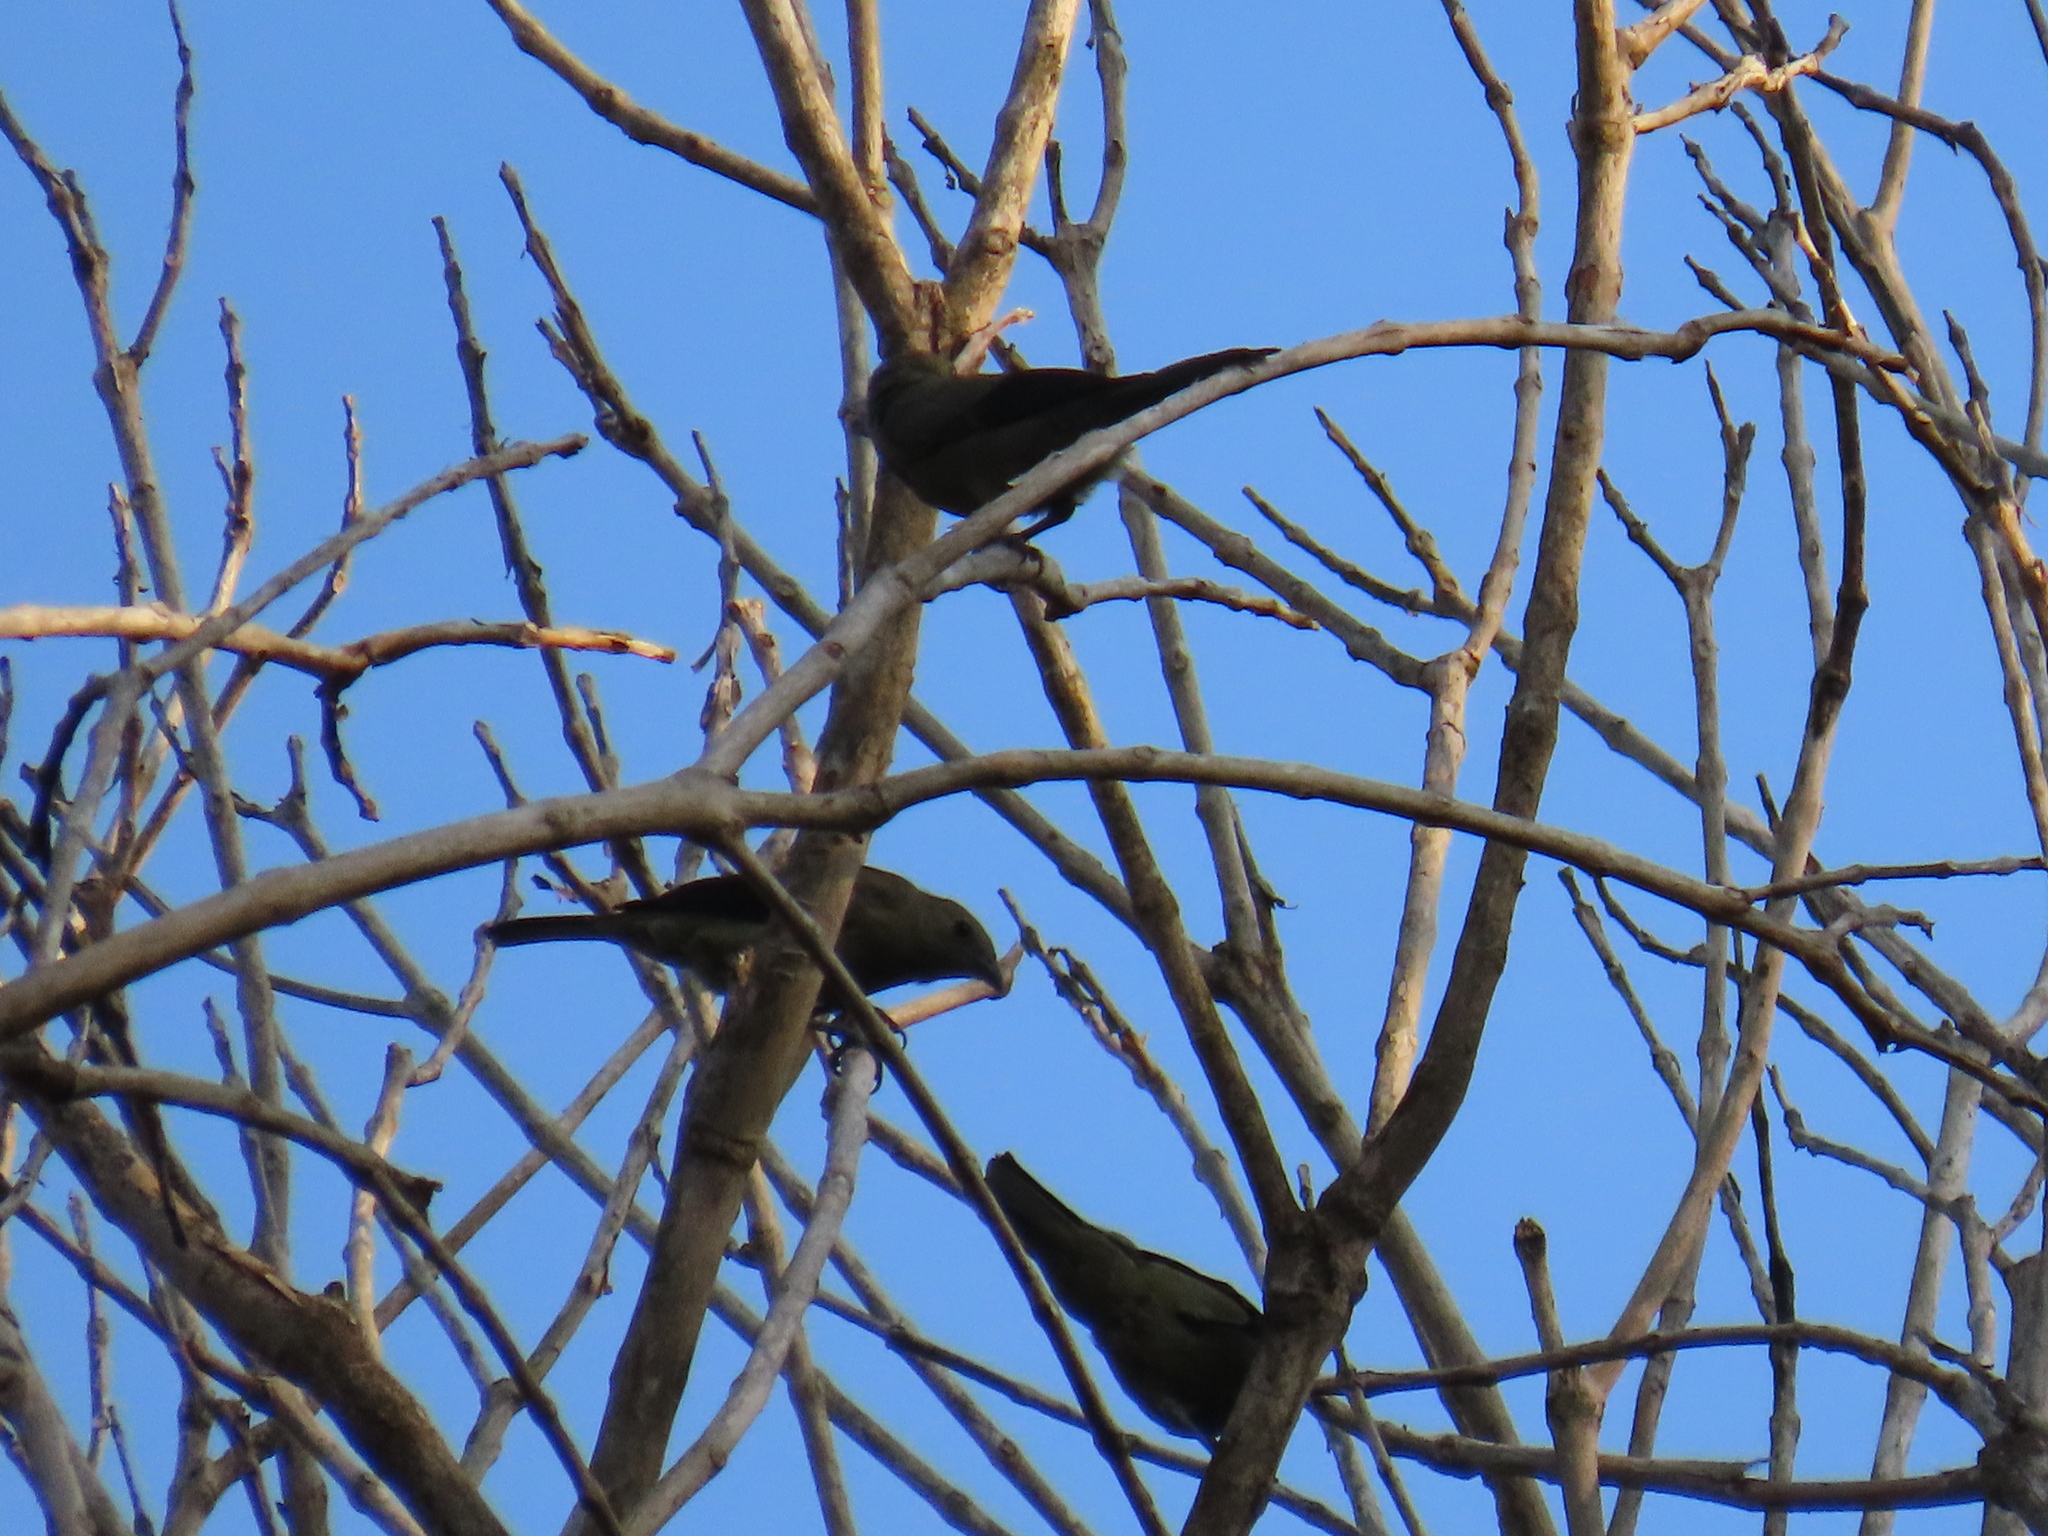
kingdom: Animalia
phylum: Chordata
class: Aves
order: Passeriformes
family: Thraupidae
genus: Thraupis
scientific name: Thraupis palmarum
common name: Palm tanager
